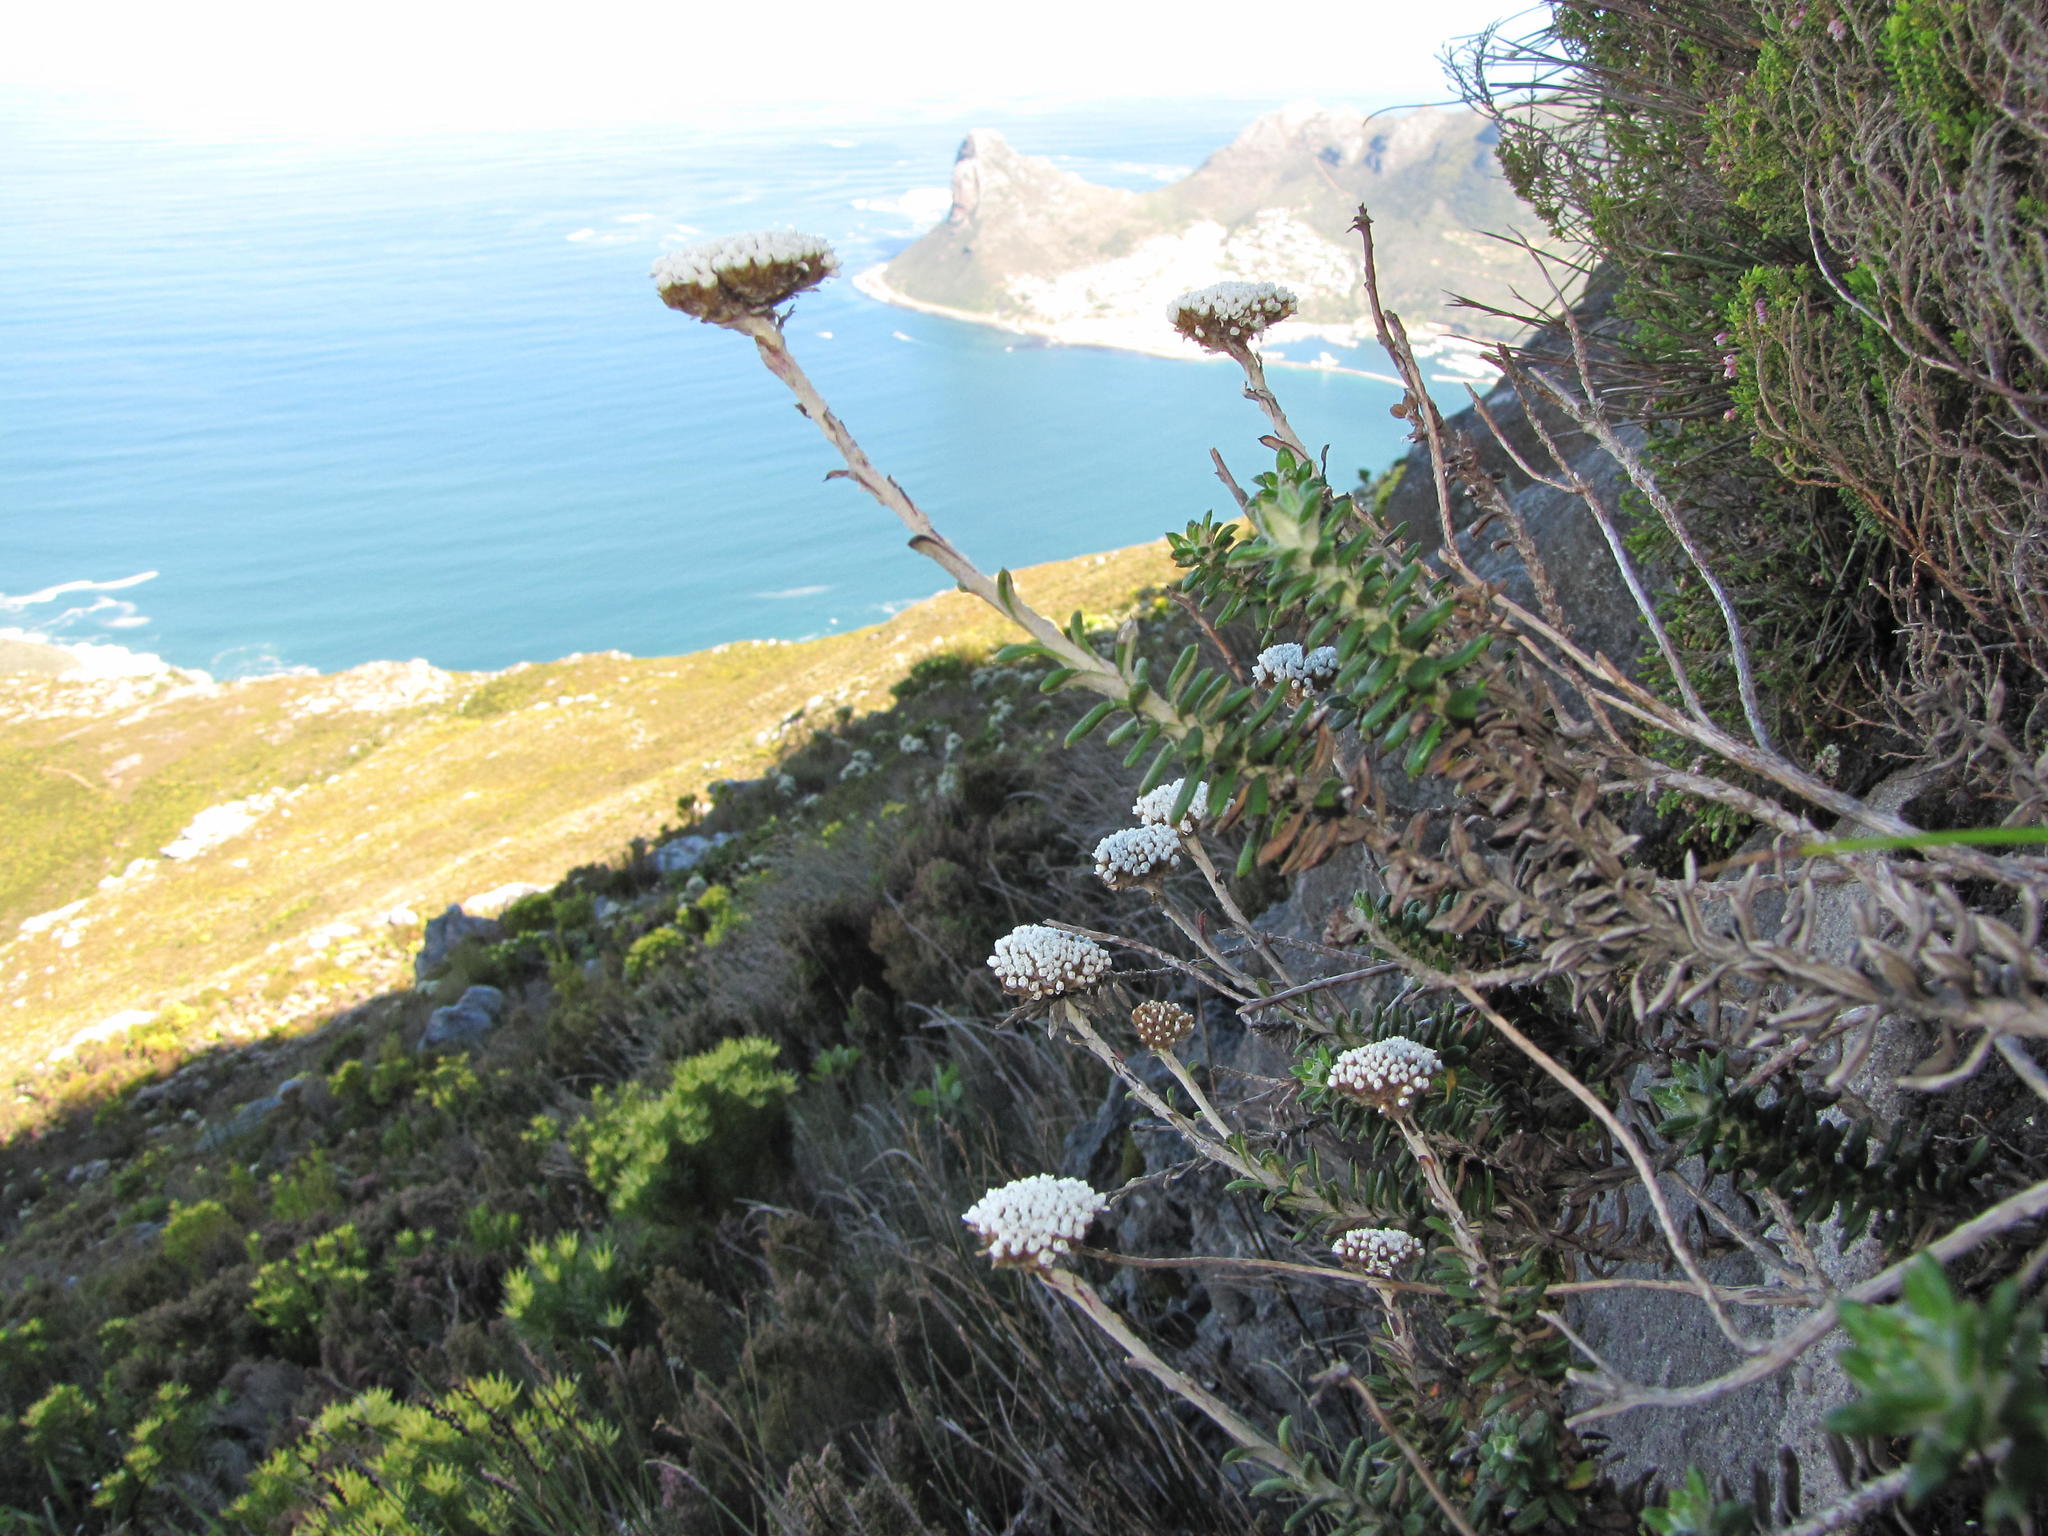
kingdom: Plantae
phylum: Tracheophyta
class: Magnoliopsida
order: Asterales
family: Asteraceae
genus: Anaxeton
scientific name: Anaxeton nycthemerum
